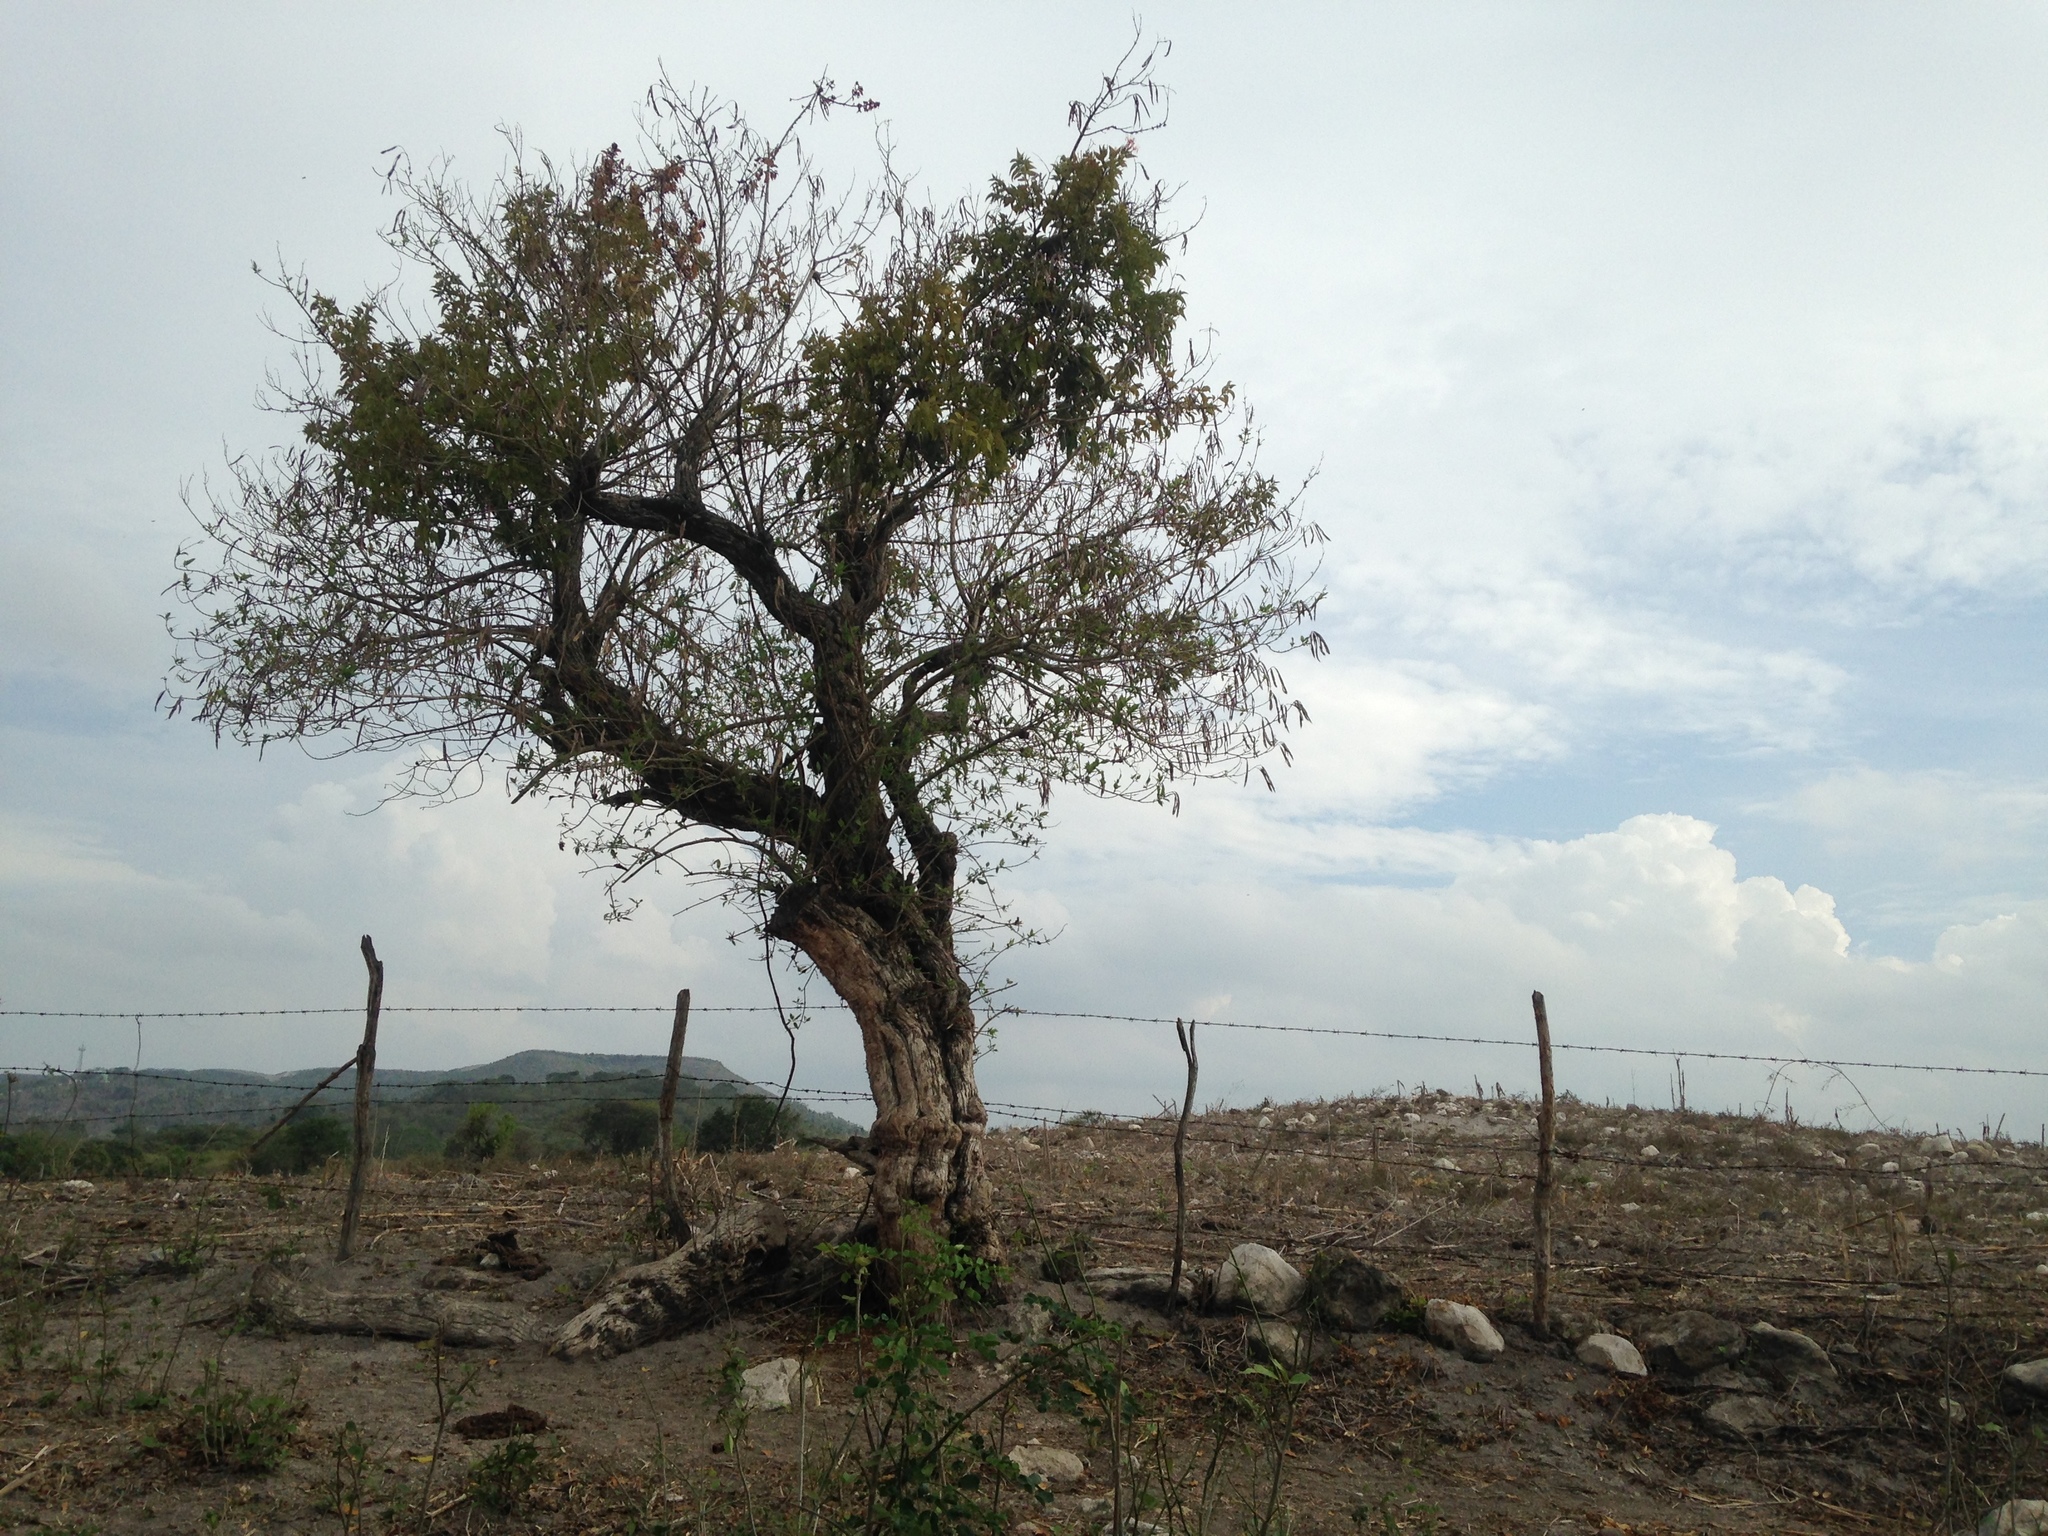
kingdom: Plantae
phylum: Tracheophyta
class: Magnoliopsida
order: Lamiales
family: Bignoniaceae
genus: Tecoma
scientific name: Tecoma stans
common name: Yellow trumpetbush
